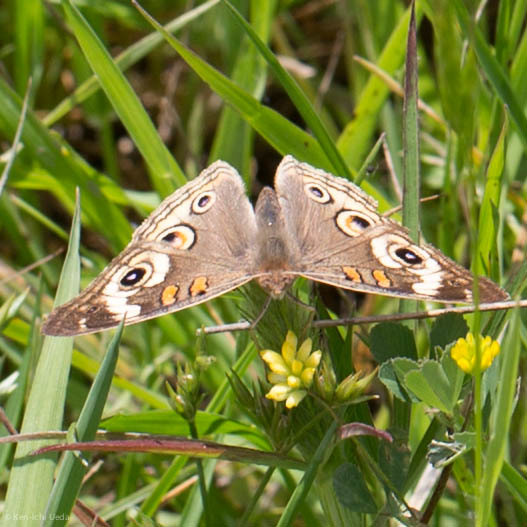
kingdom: Animalia
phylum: Arthropoda
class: Insecta
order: Lepidoptera
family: Nymphalidae
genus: Junonia
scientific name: Junonia grisea
